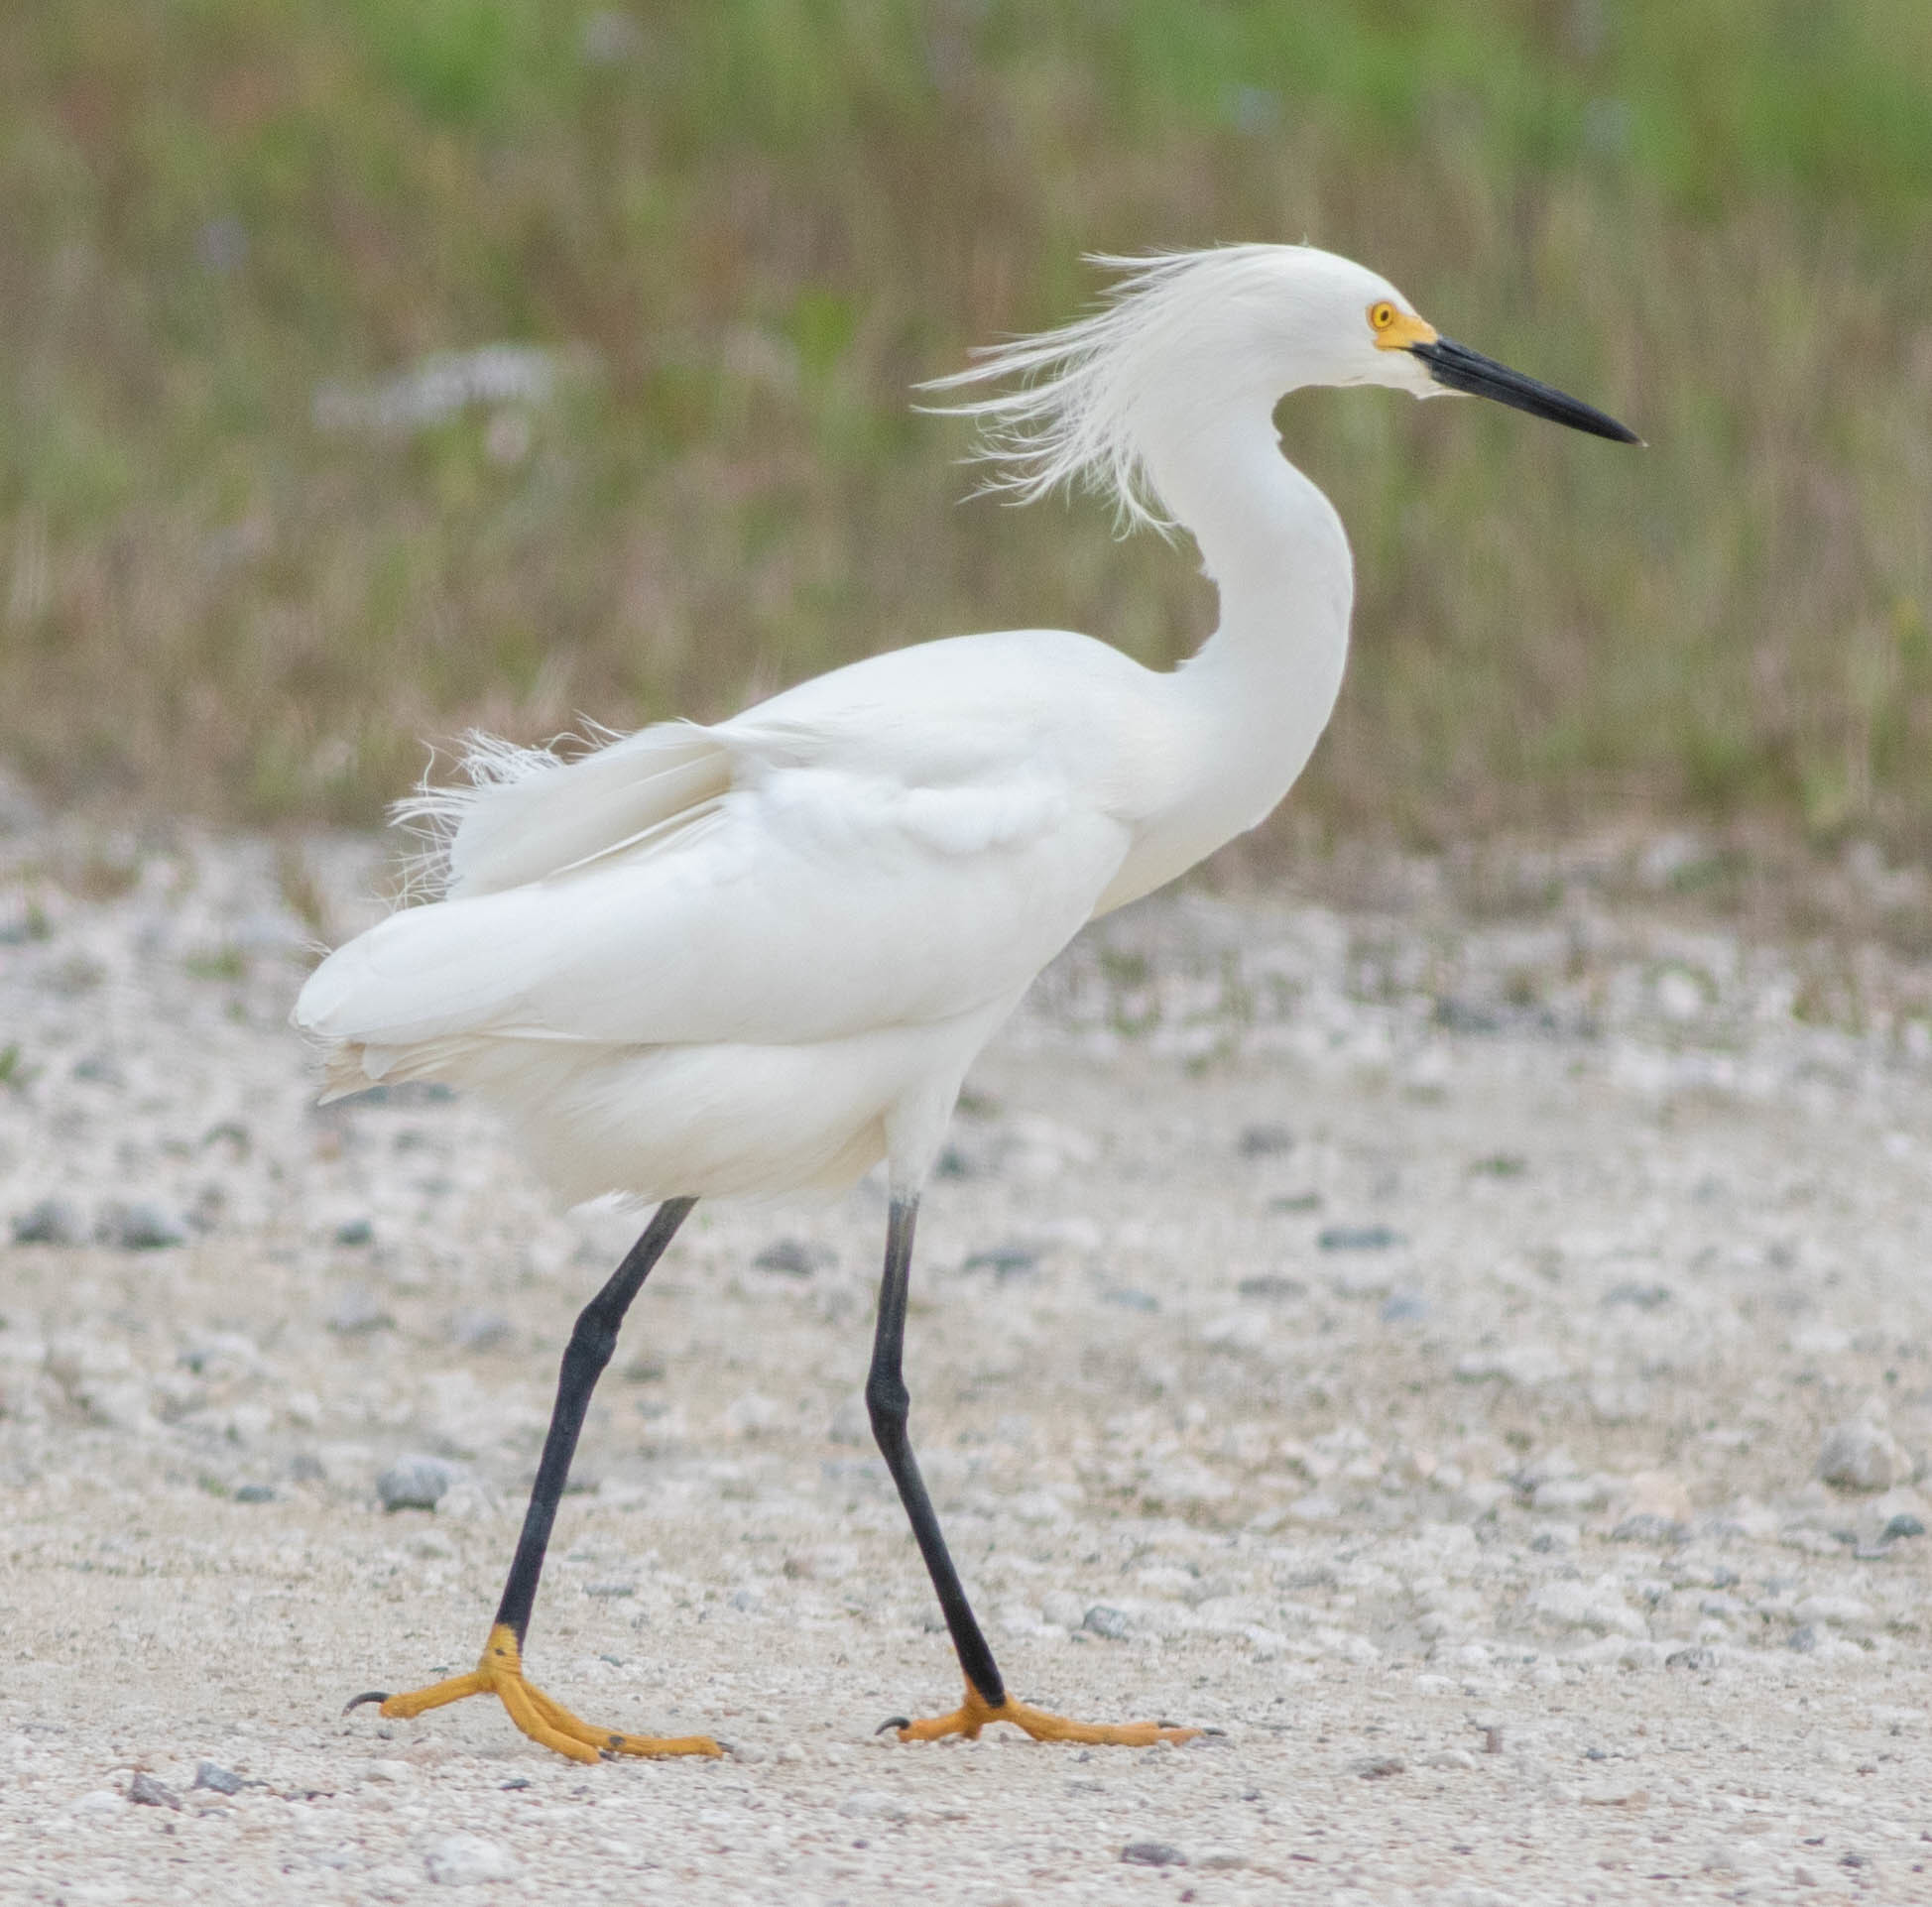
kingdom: Animalia
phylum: Chordata
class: Aves
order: Pelecaniformes
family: Ardeidae
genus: Egretta
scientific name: Egretta thula
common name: Snowy egret
